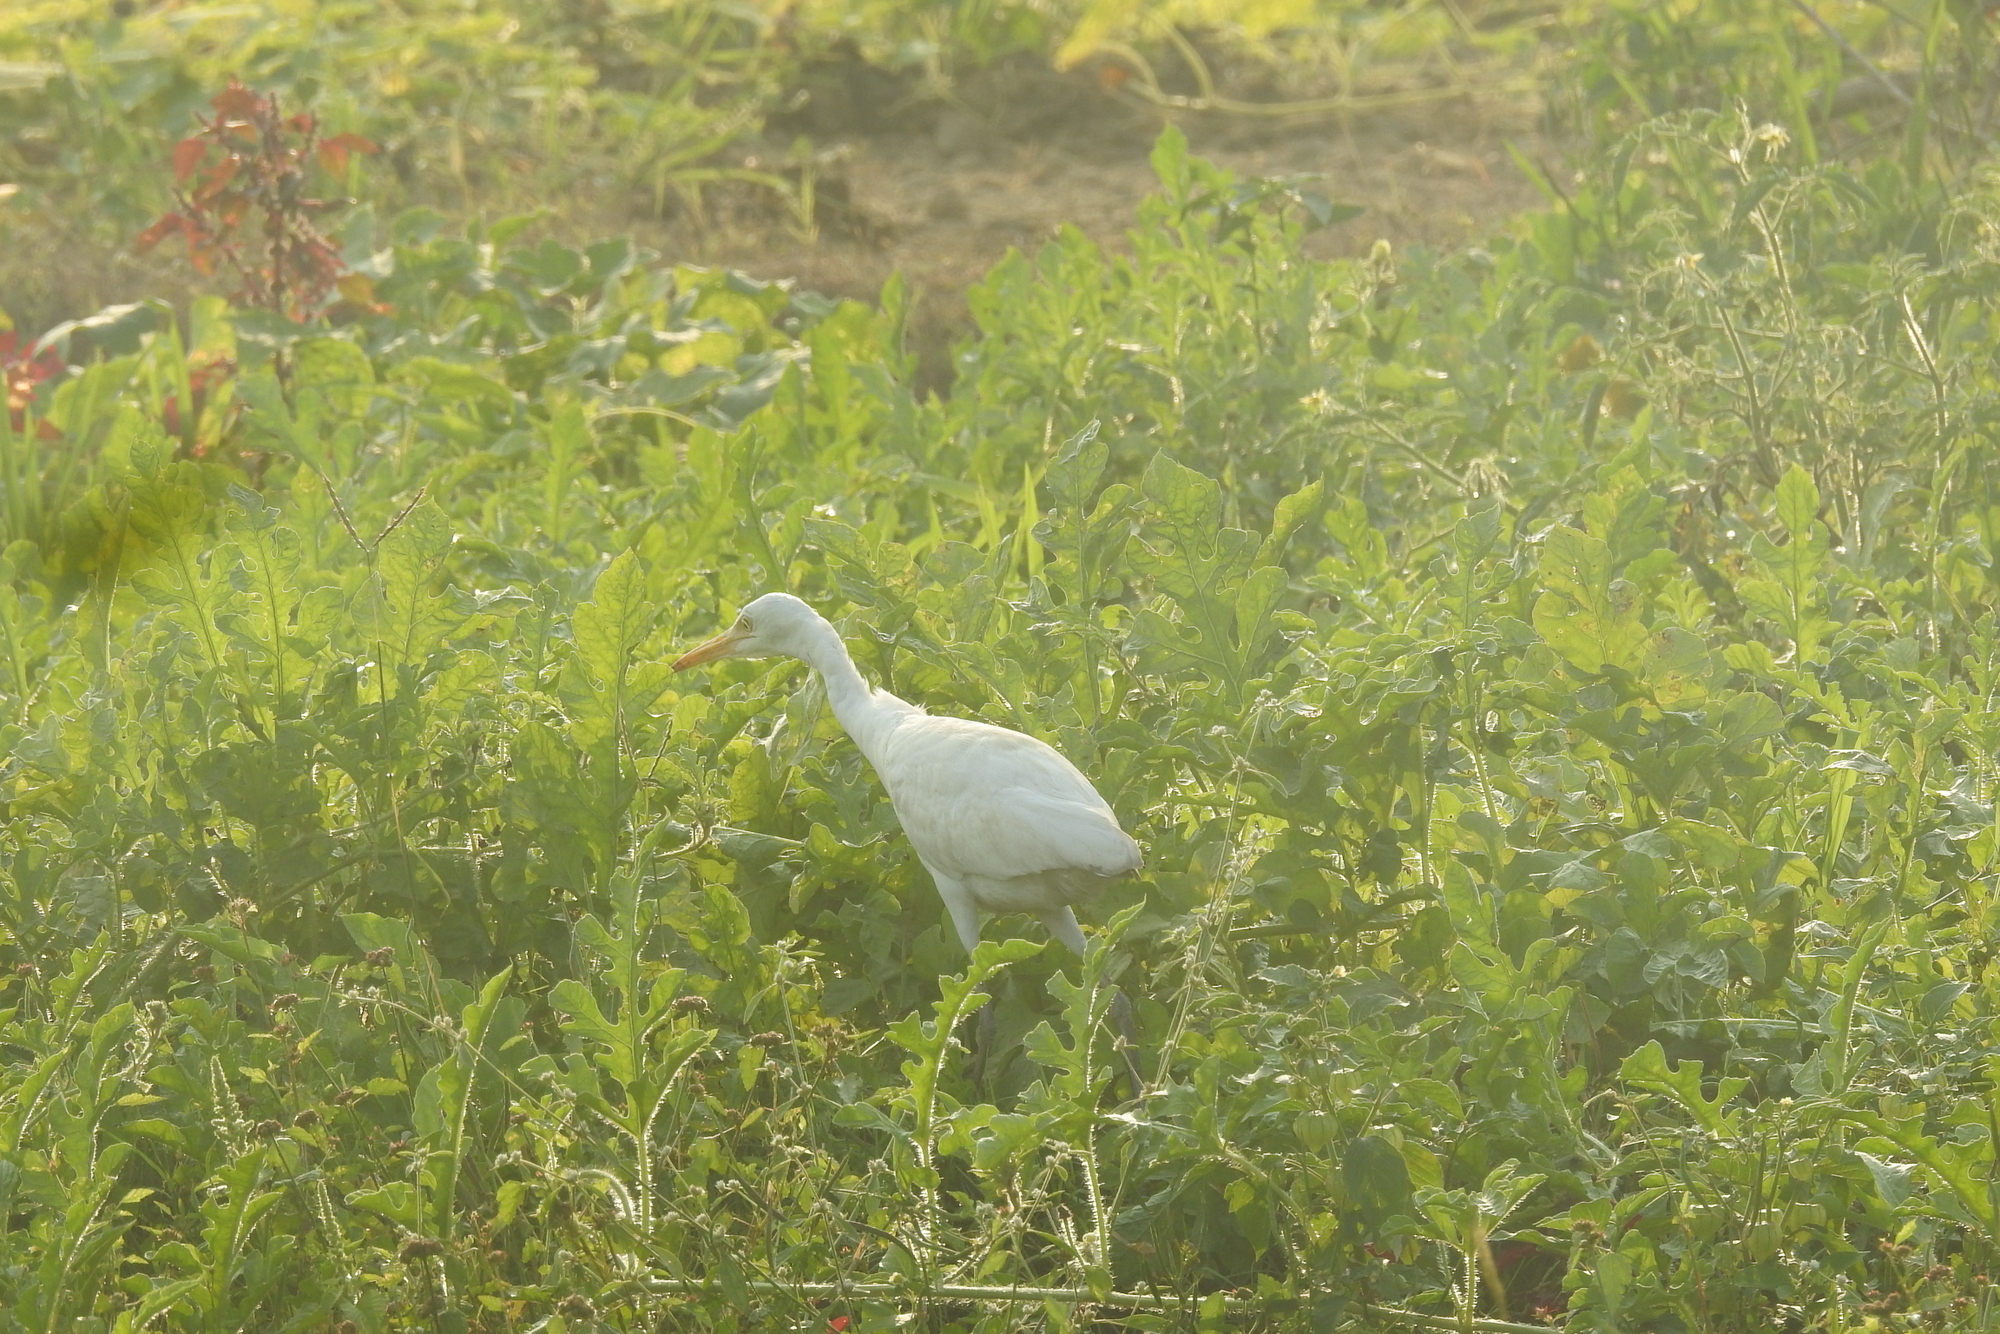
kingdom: Animalia
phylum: Chordata
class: Aves
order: Pelecaniformes
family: Ardeidae
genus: Bubulcus
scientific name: Bubulcus coromandus
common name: Eastern cattle egret
